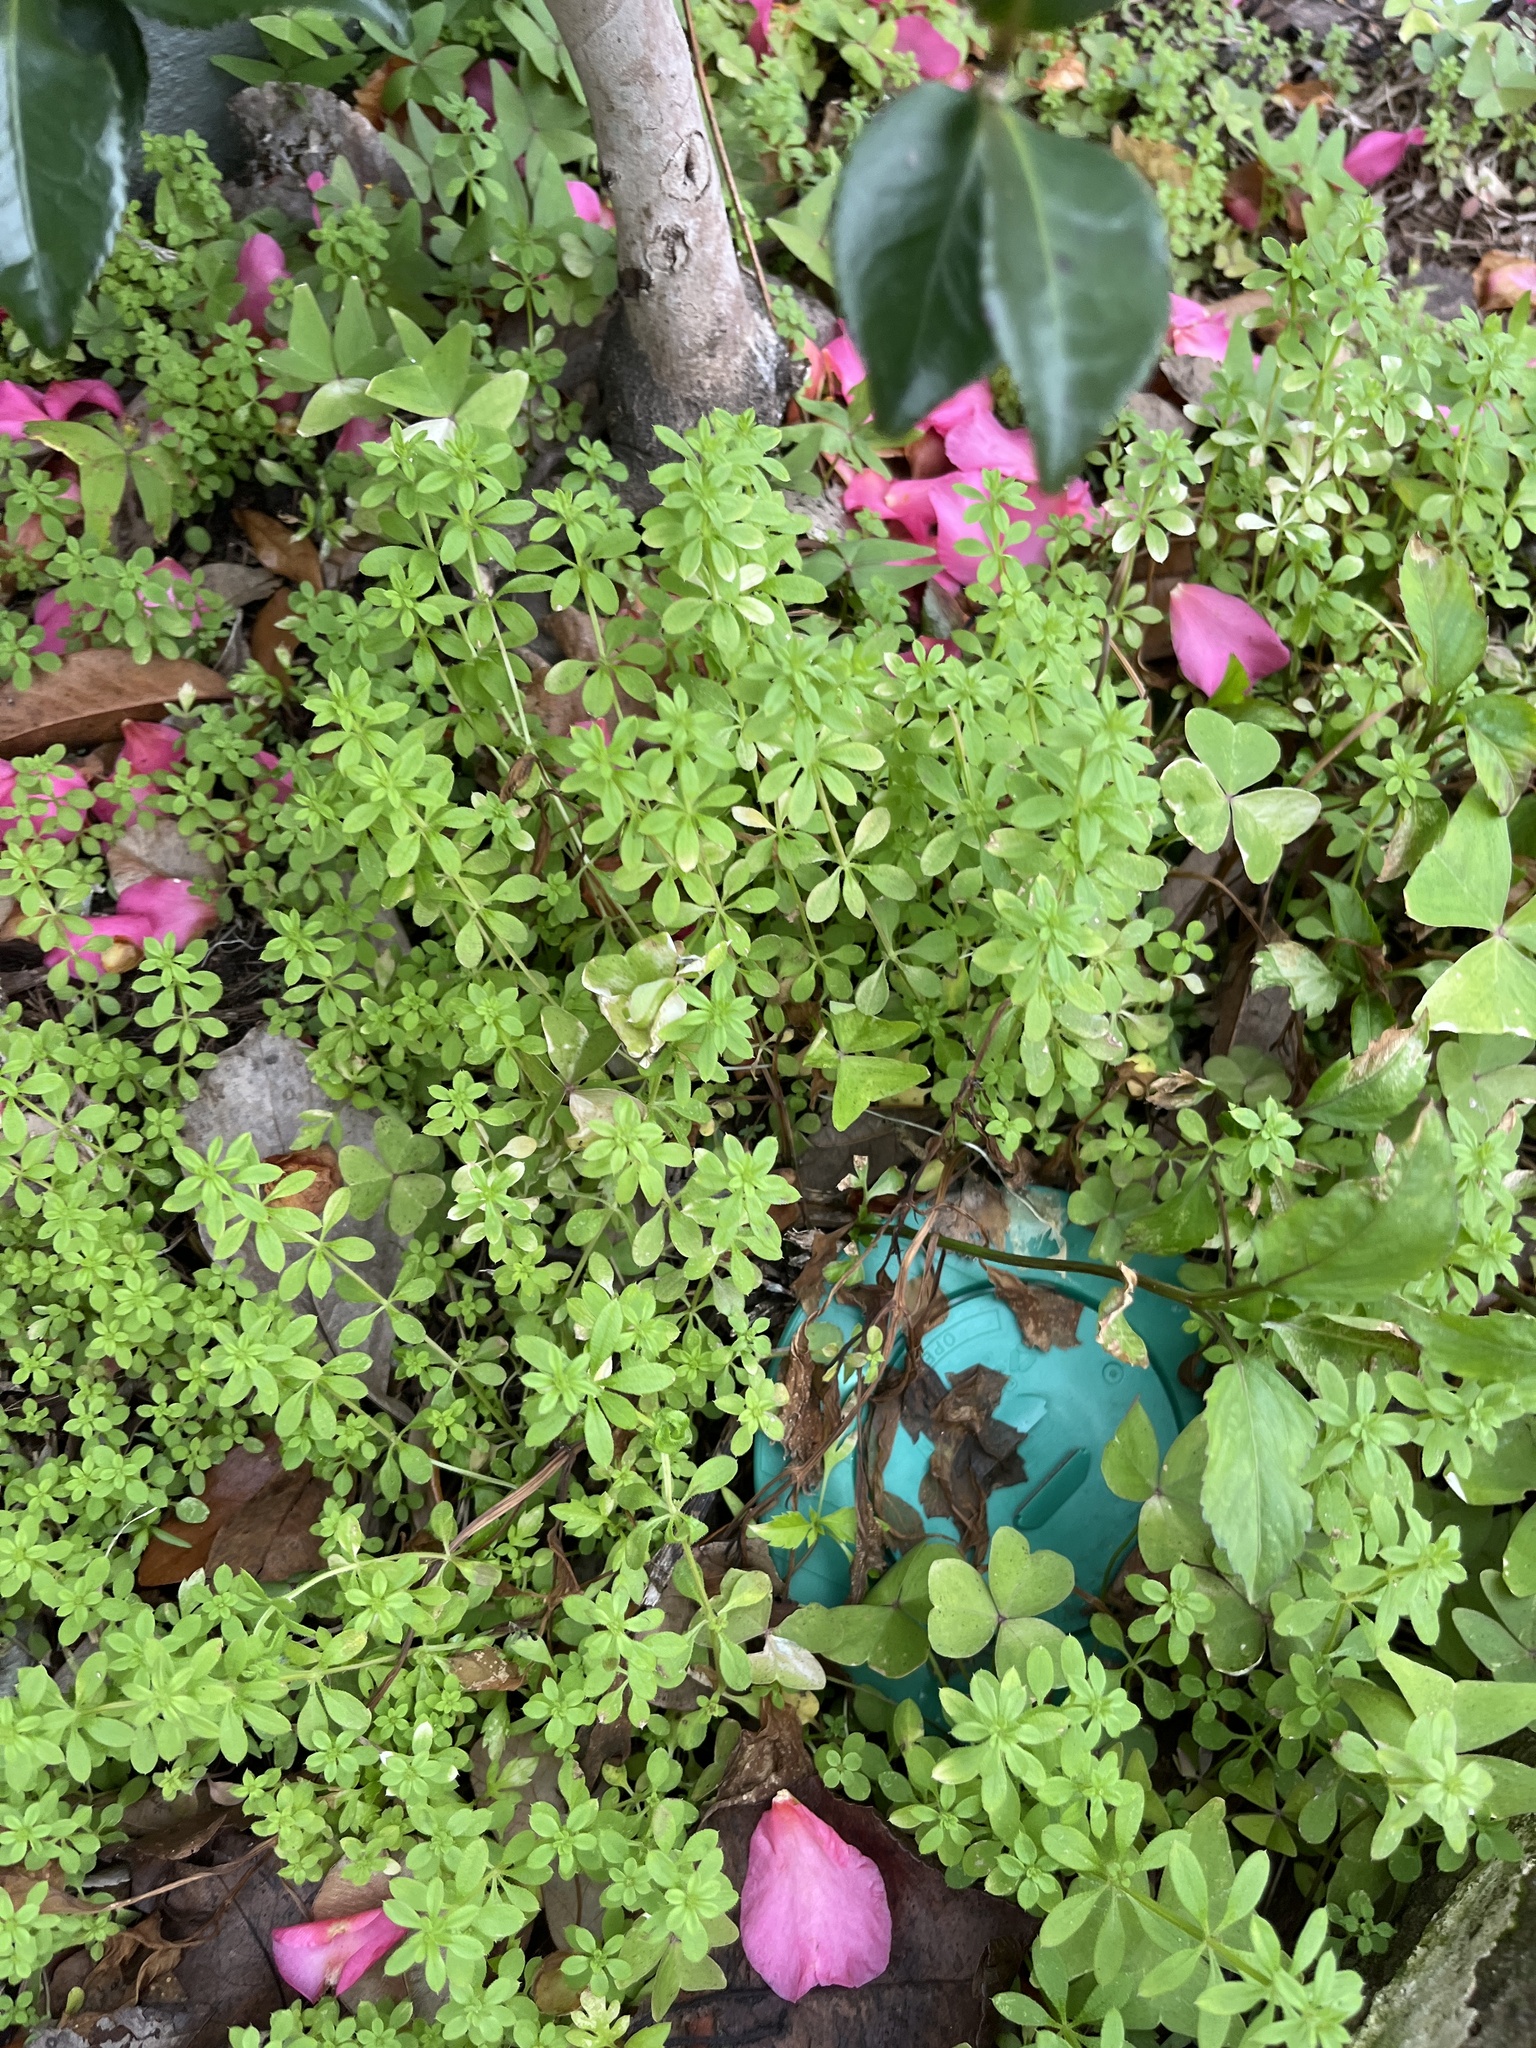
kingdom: Plantae
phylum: Tracheophyta
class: Magnoliopsida
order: Gentianales
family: Rubiaceae
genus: Galium
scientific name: Galium aparine
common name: Cleavers
